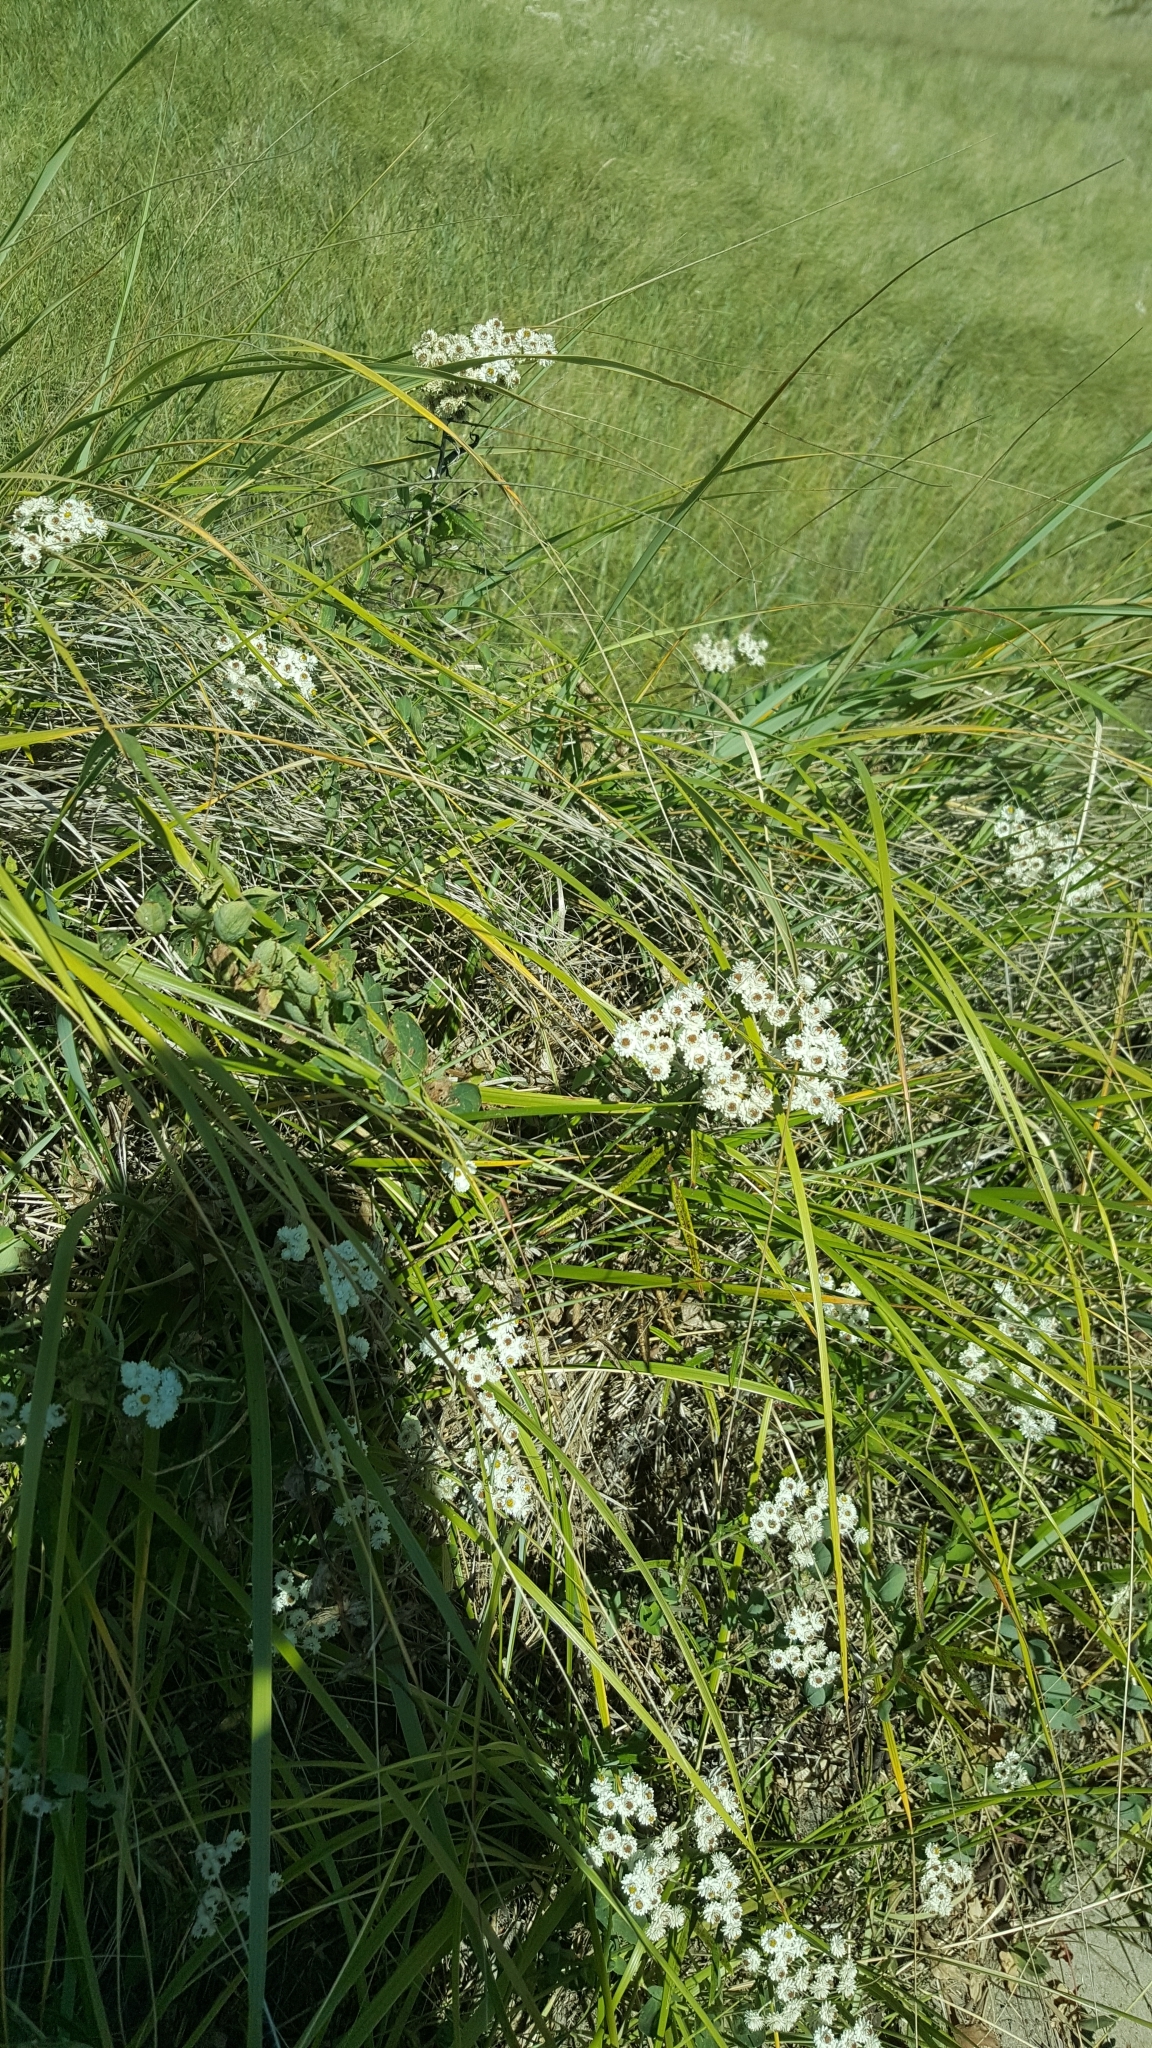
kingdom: Plantae
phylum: Tracheophyta
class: Magnoliopsida
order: Asterales
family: Asteraceae
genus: Anaphalis
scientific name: Anaphalis margaritacea
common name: Pearly everlasting
